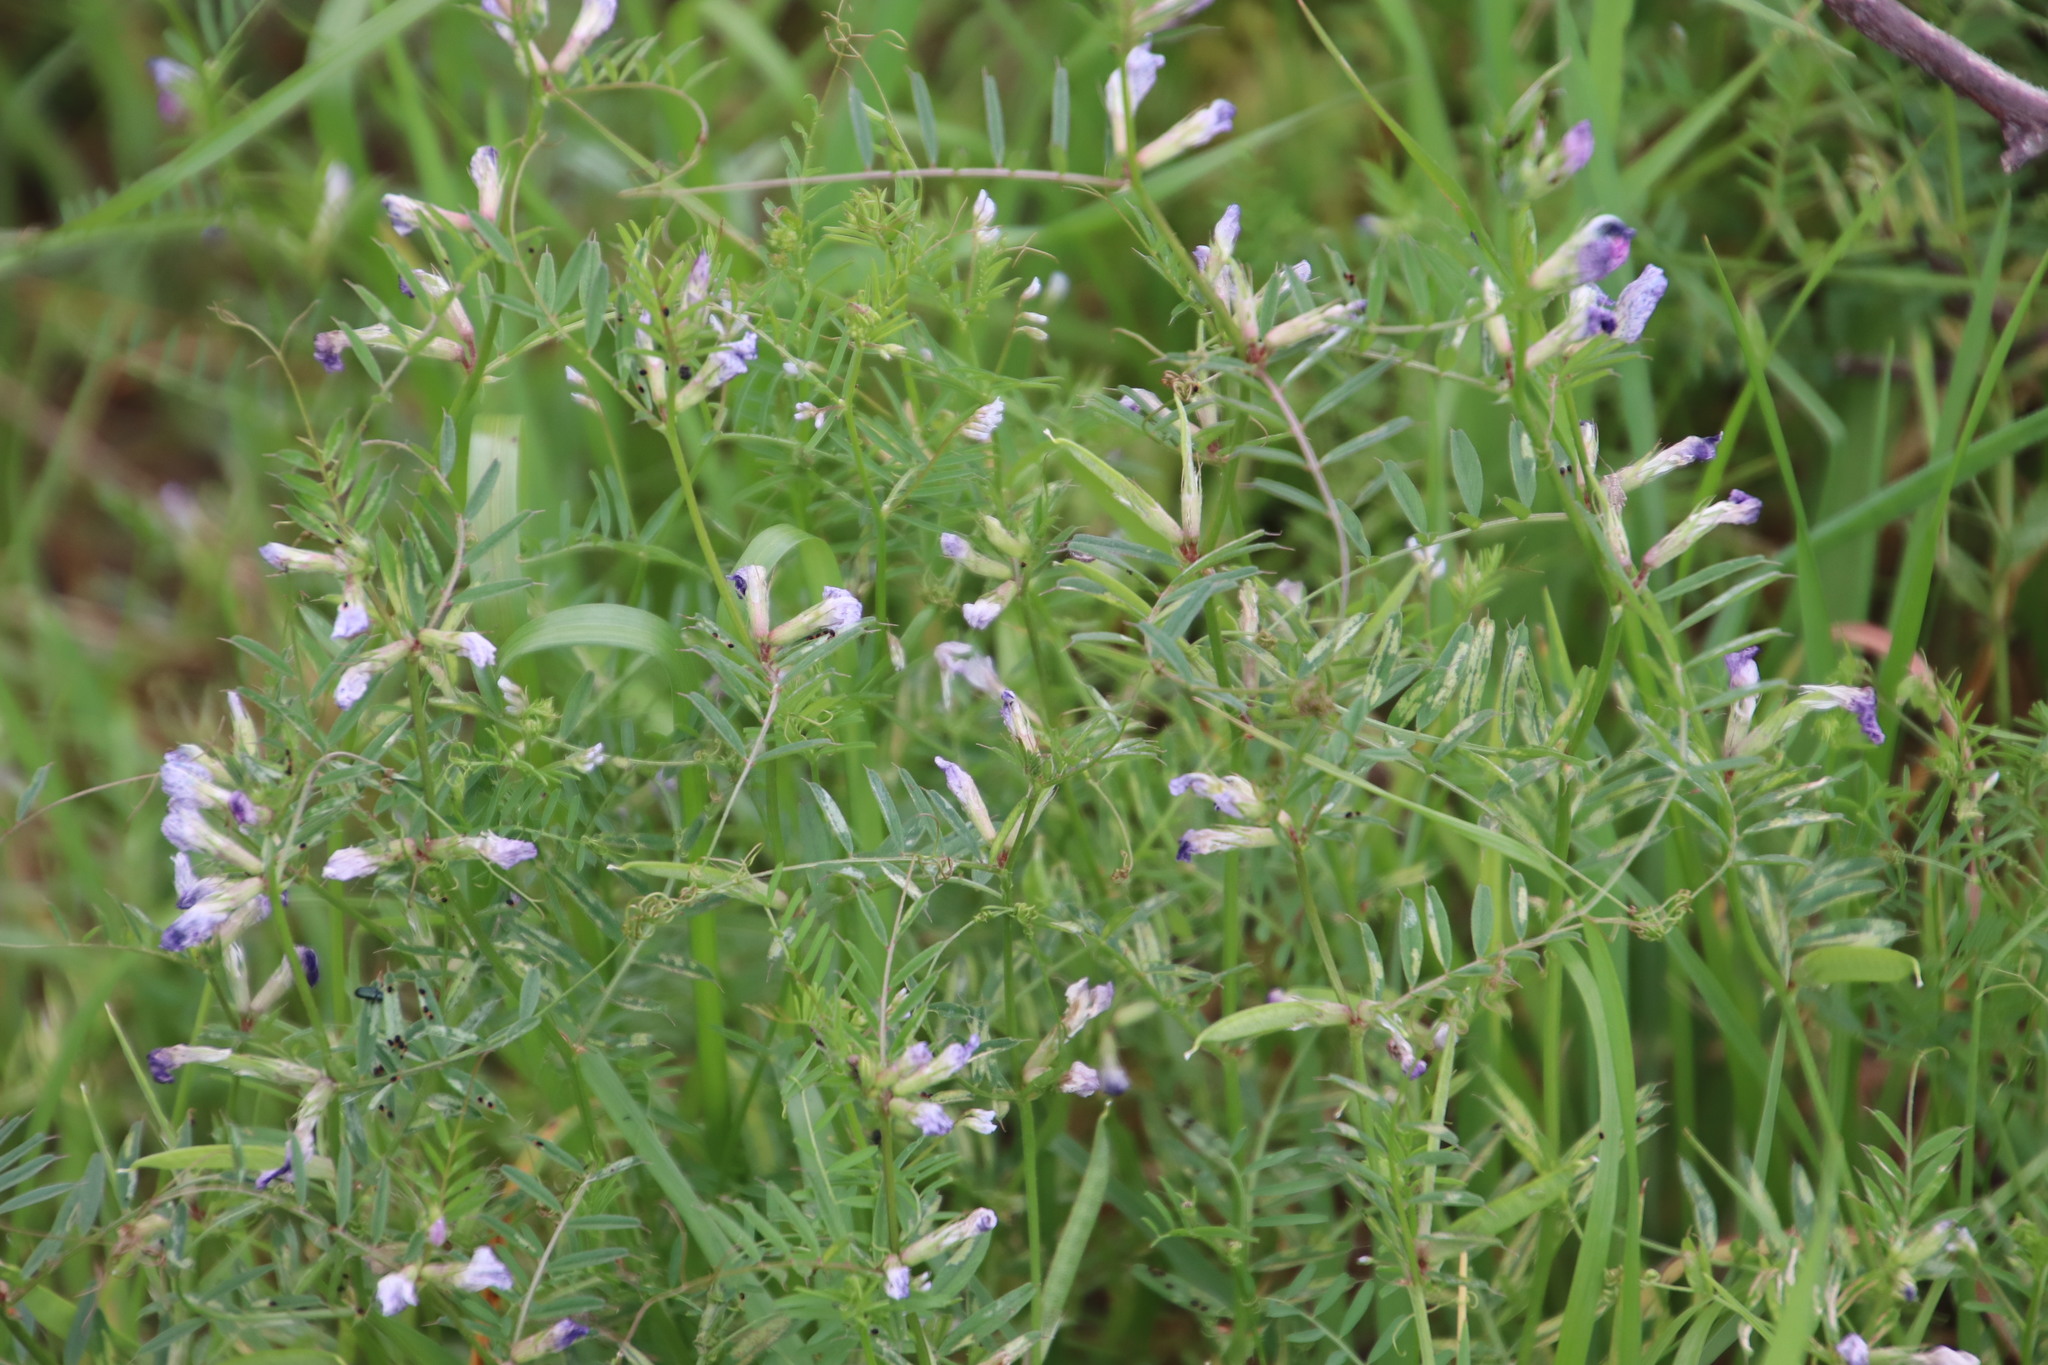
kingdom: Plantae
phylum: Tracheophyta
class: Magnoliopsida
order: Fabales
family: Fabaceae
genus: Vicia
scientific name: Vicia sativa
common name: Garden vetch
